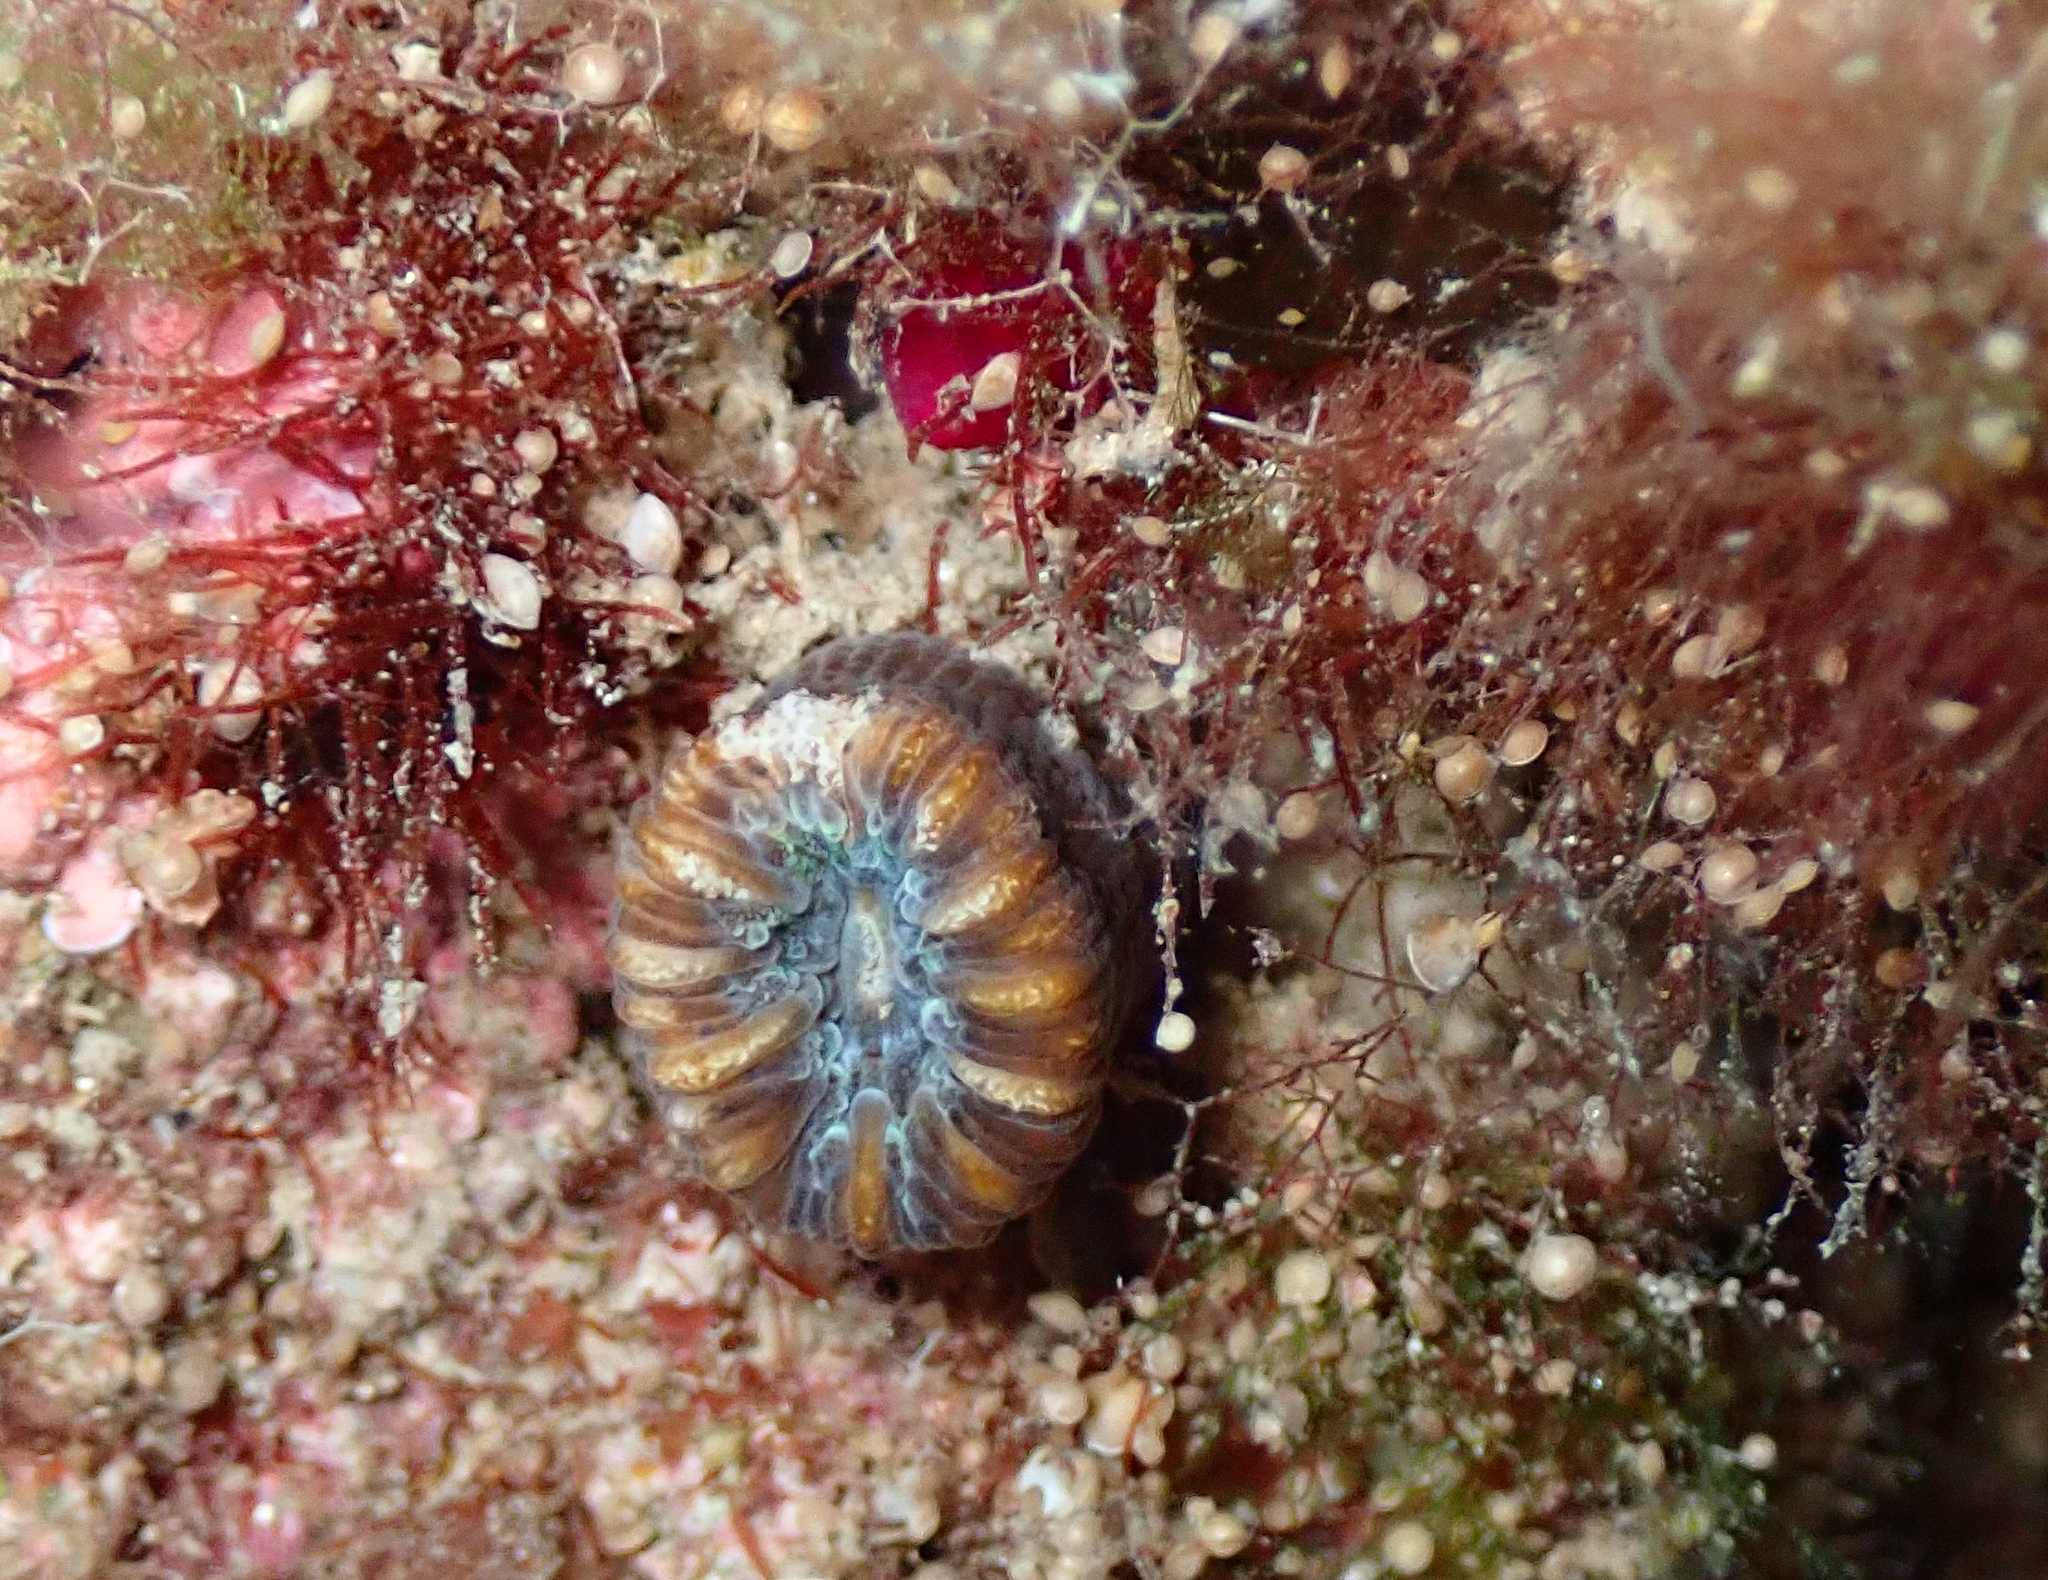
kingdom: Animalia
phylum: Cnidaria
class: Anthozoa
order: Scleractinia
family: Dendrophylliidae
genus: Balanophyllia
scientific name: Balanophyllia europaea
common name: Scarlet coral
